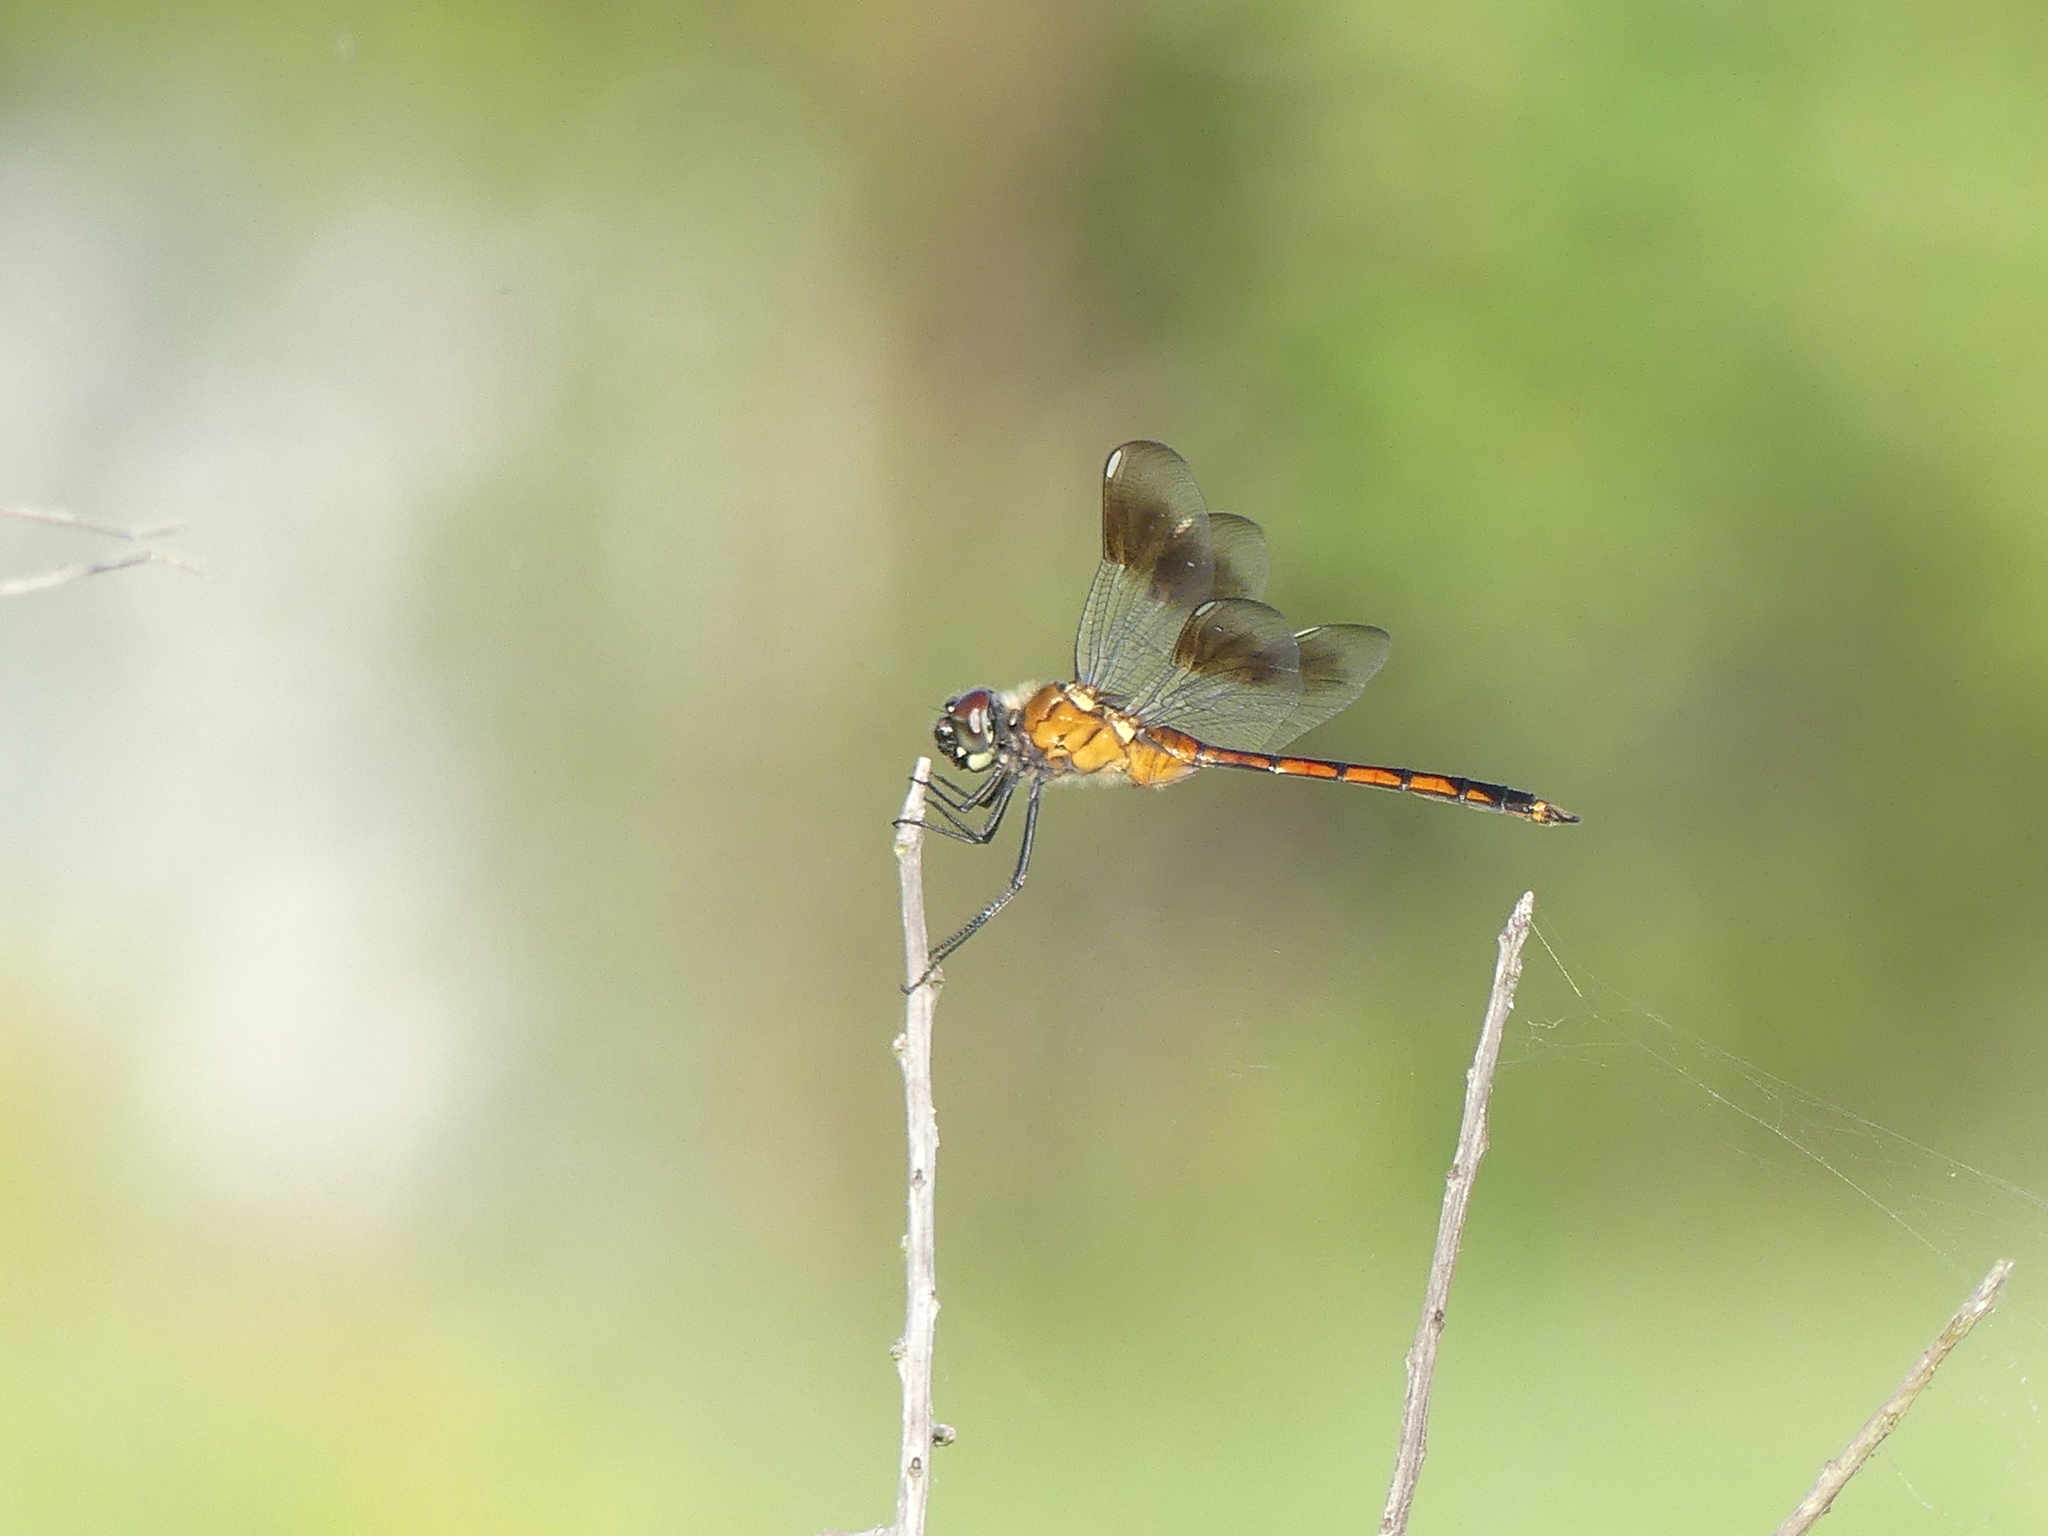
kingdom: Animalia
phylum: Arthropoda
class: Insecta
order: Odonata
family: Libellulidae
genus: Brachymesia
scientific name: Brachymesia gravida
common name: Four-spotted pennant
